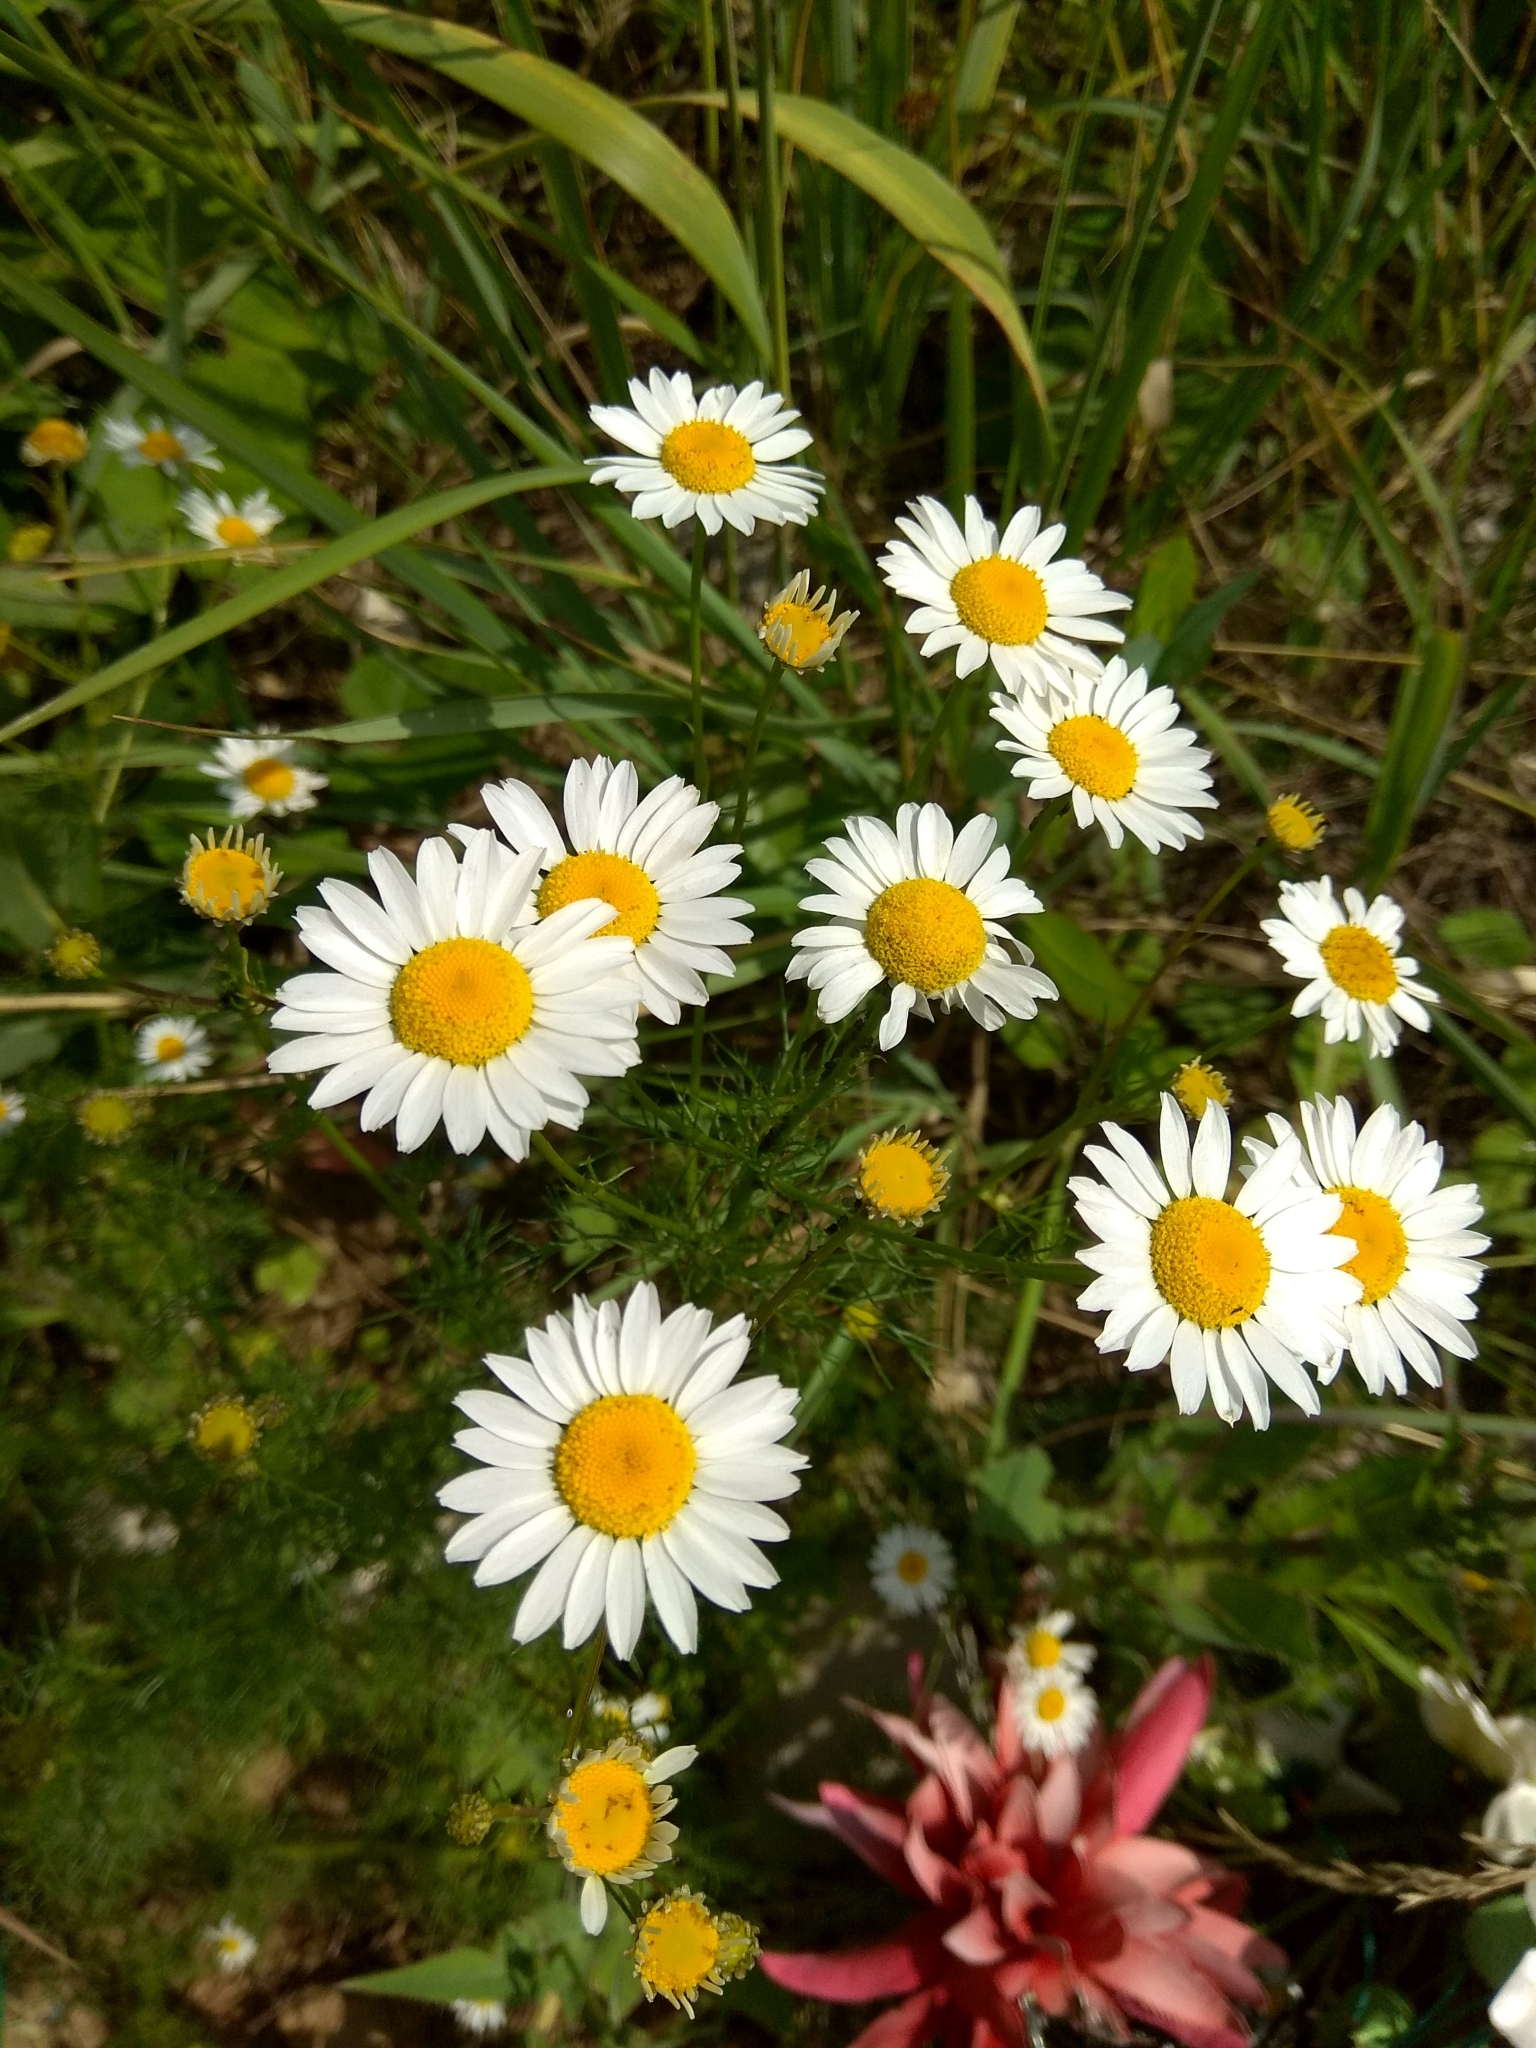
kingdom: Plantae
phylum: Tracheophyta
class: Magnoliopsida
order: Asterales
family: Asteraceae
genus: Tripleurospermum
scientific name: Tripleurospermum inodorum
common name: Scentless mayweed
